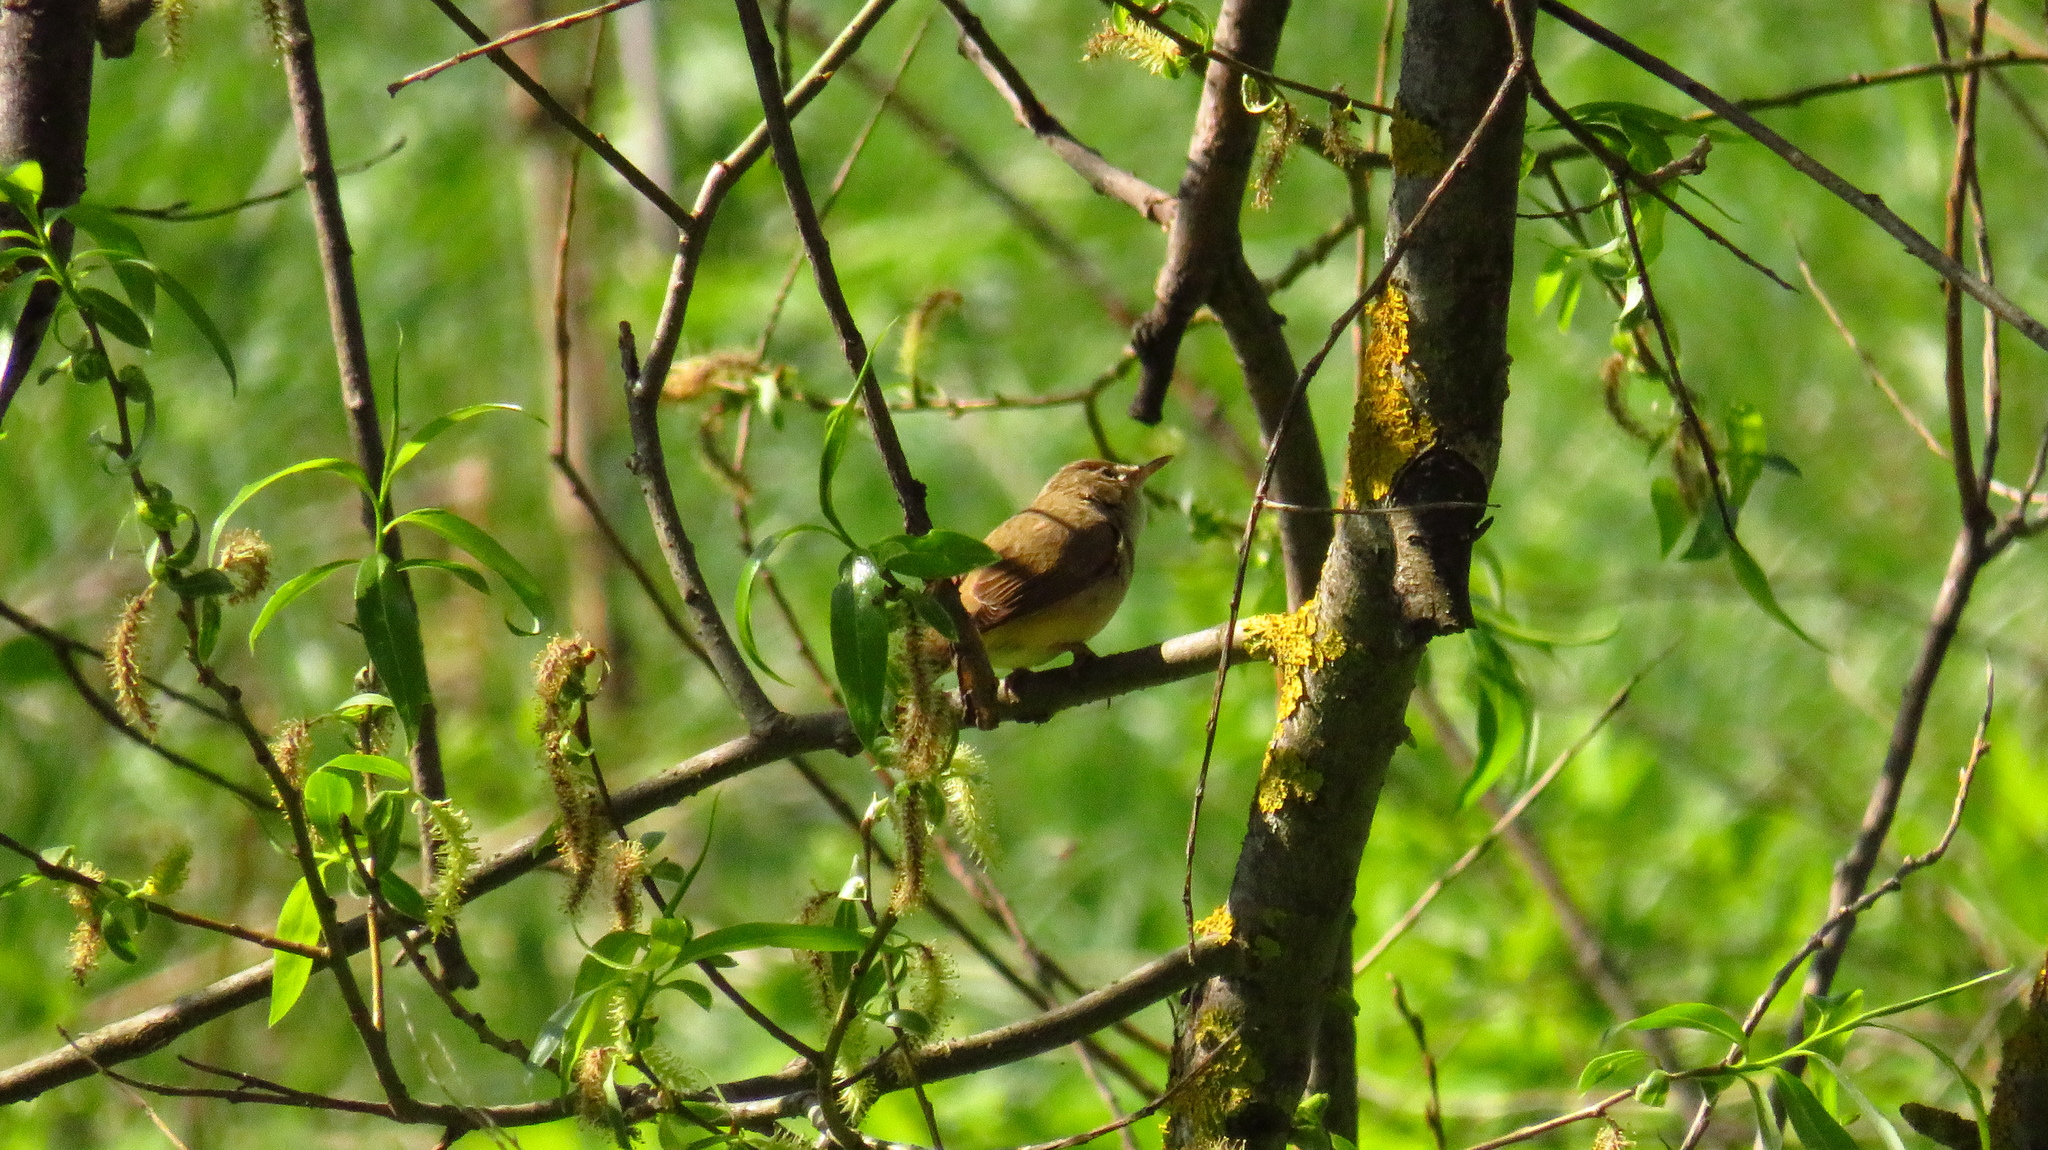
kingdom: Animalia
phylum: Chordata
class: Aves
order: Passeriformes
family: Acrocephalidae
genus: Acrocephalus
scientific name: Acrocephalus dumetorum
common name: Blyth's reed warbler
